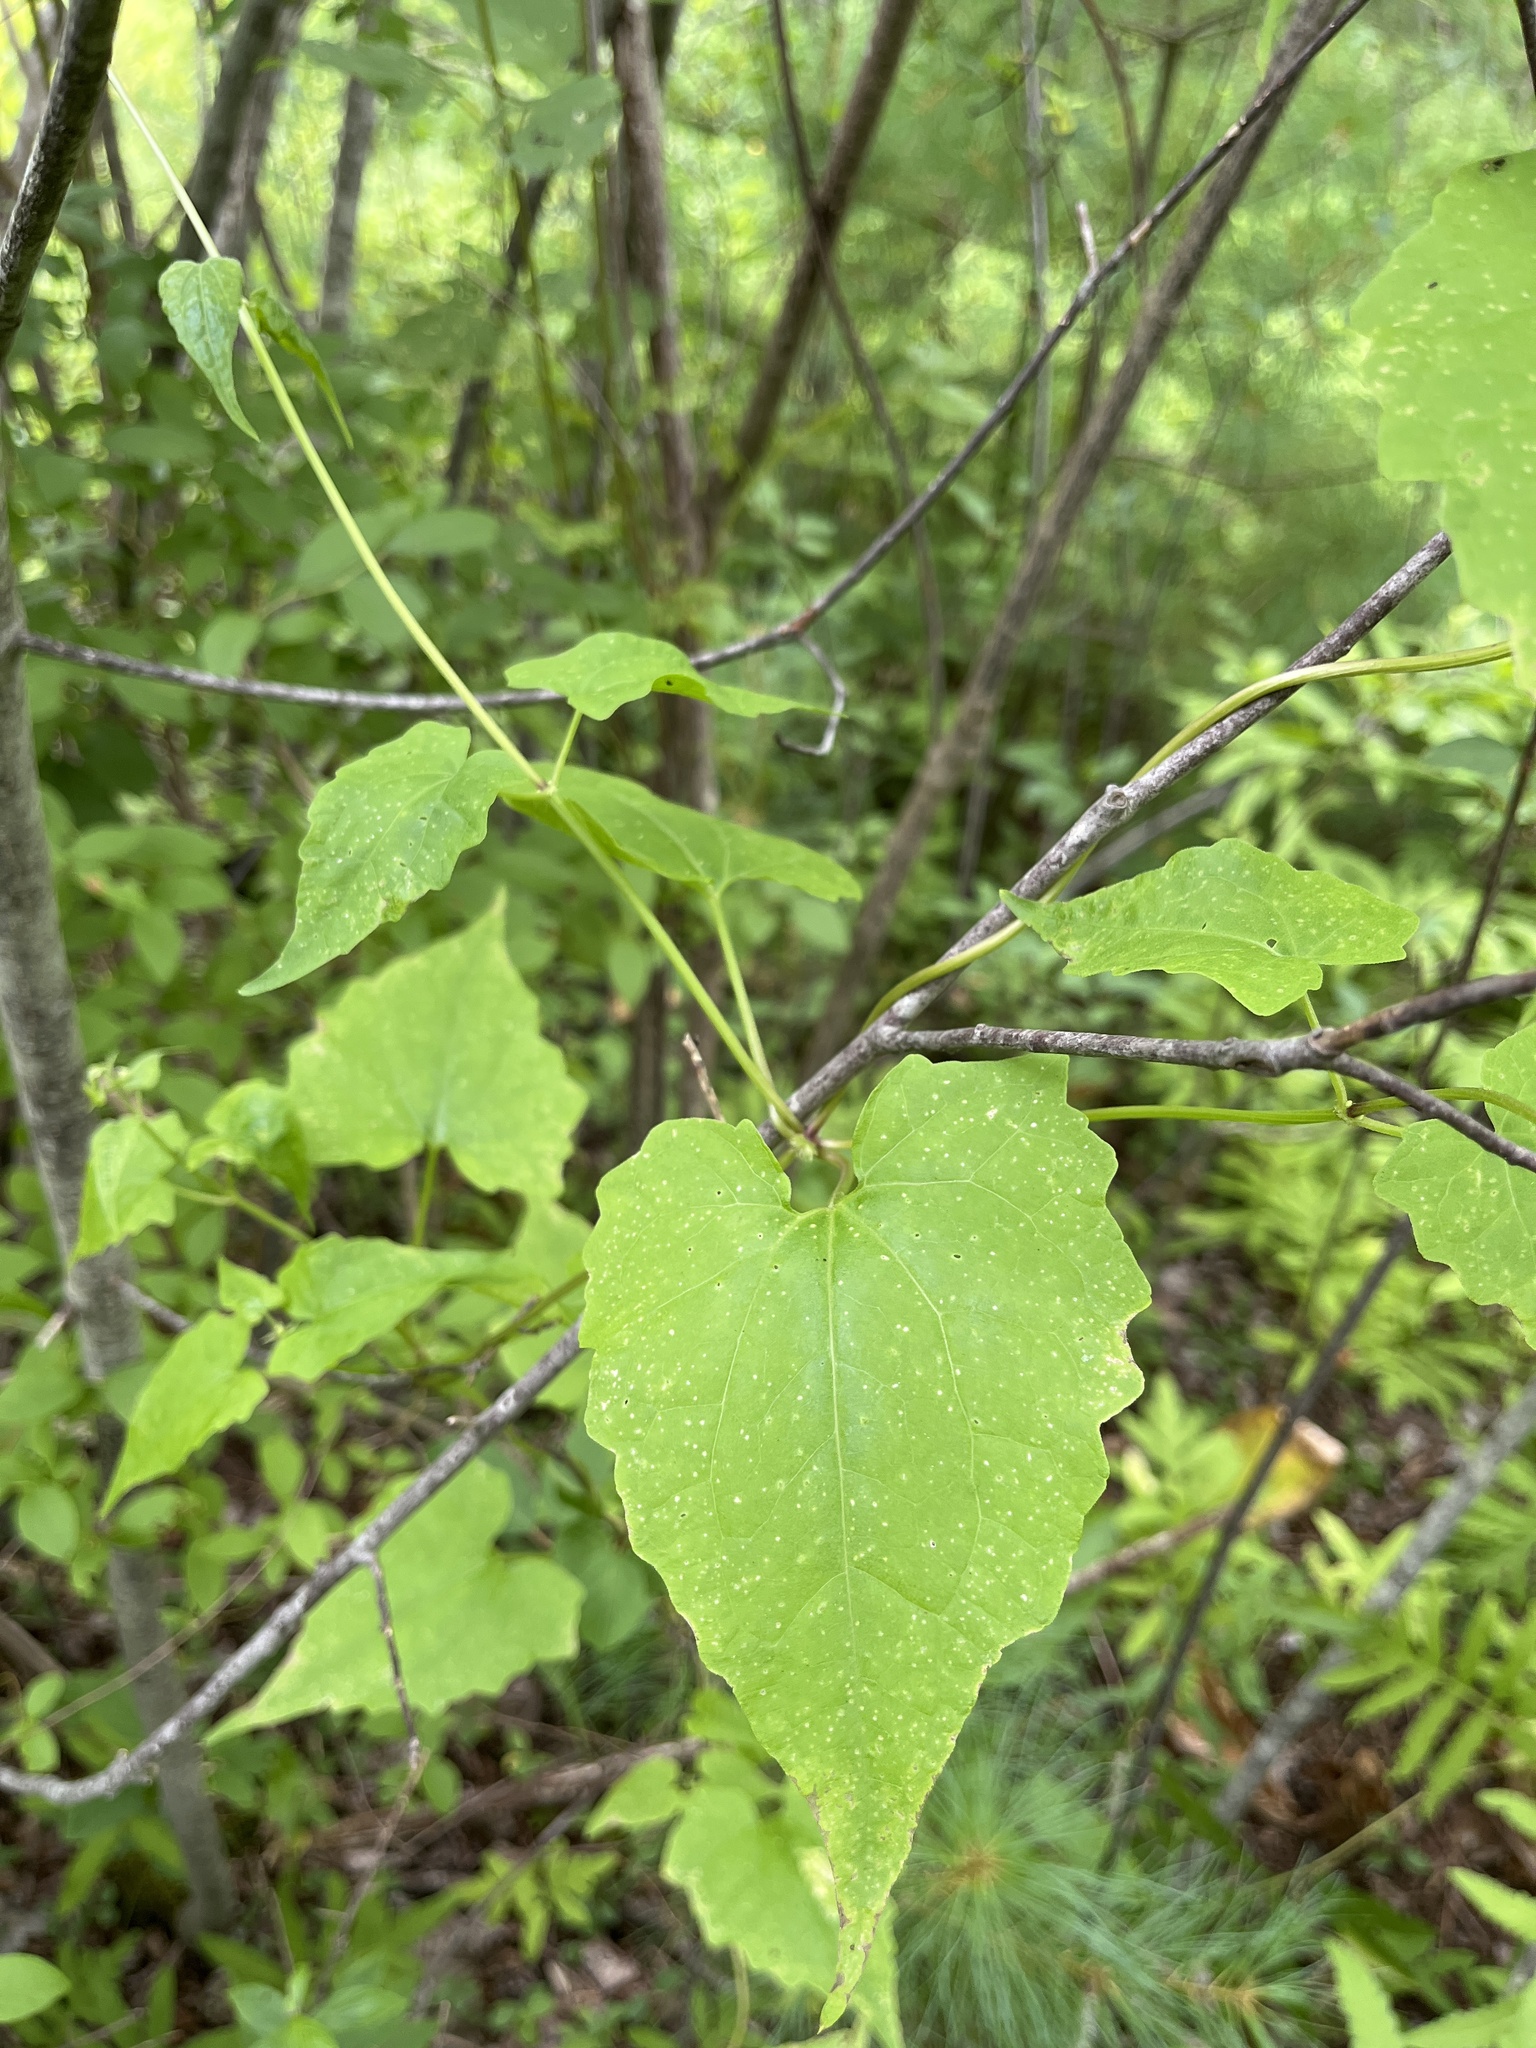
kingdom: Plantae
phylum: Tracheophyta
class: Magnoliopsida
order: Asterales
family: Asteraceae
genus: Mikania
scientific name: Mikania scandens
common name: Climbing hempvine
